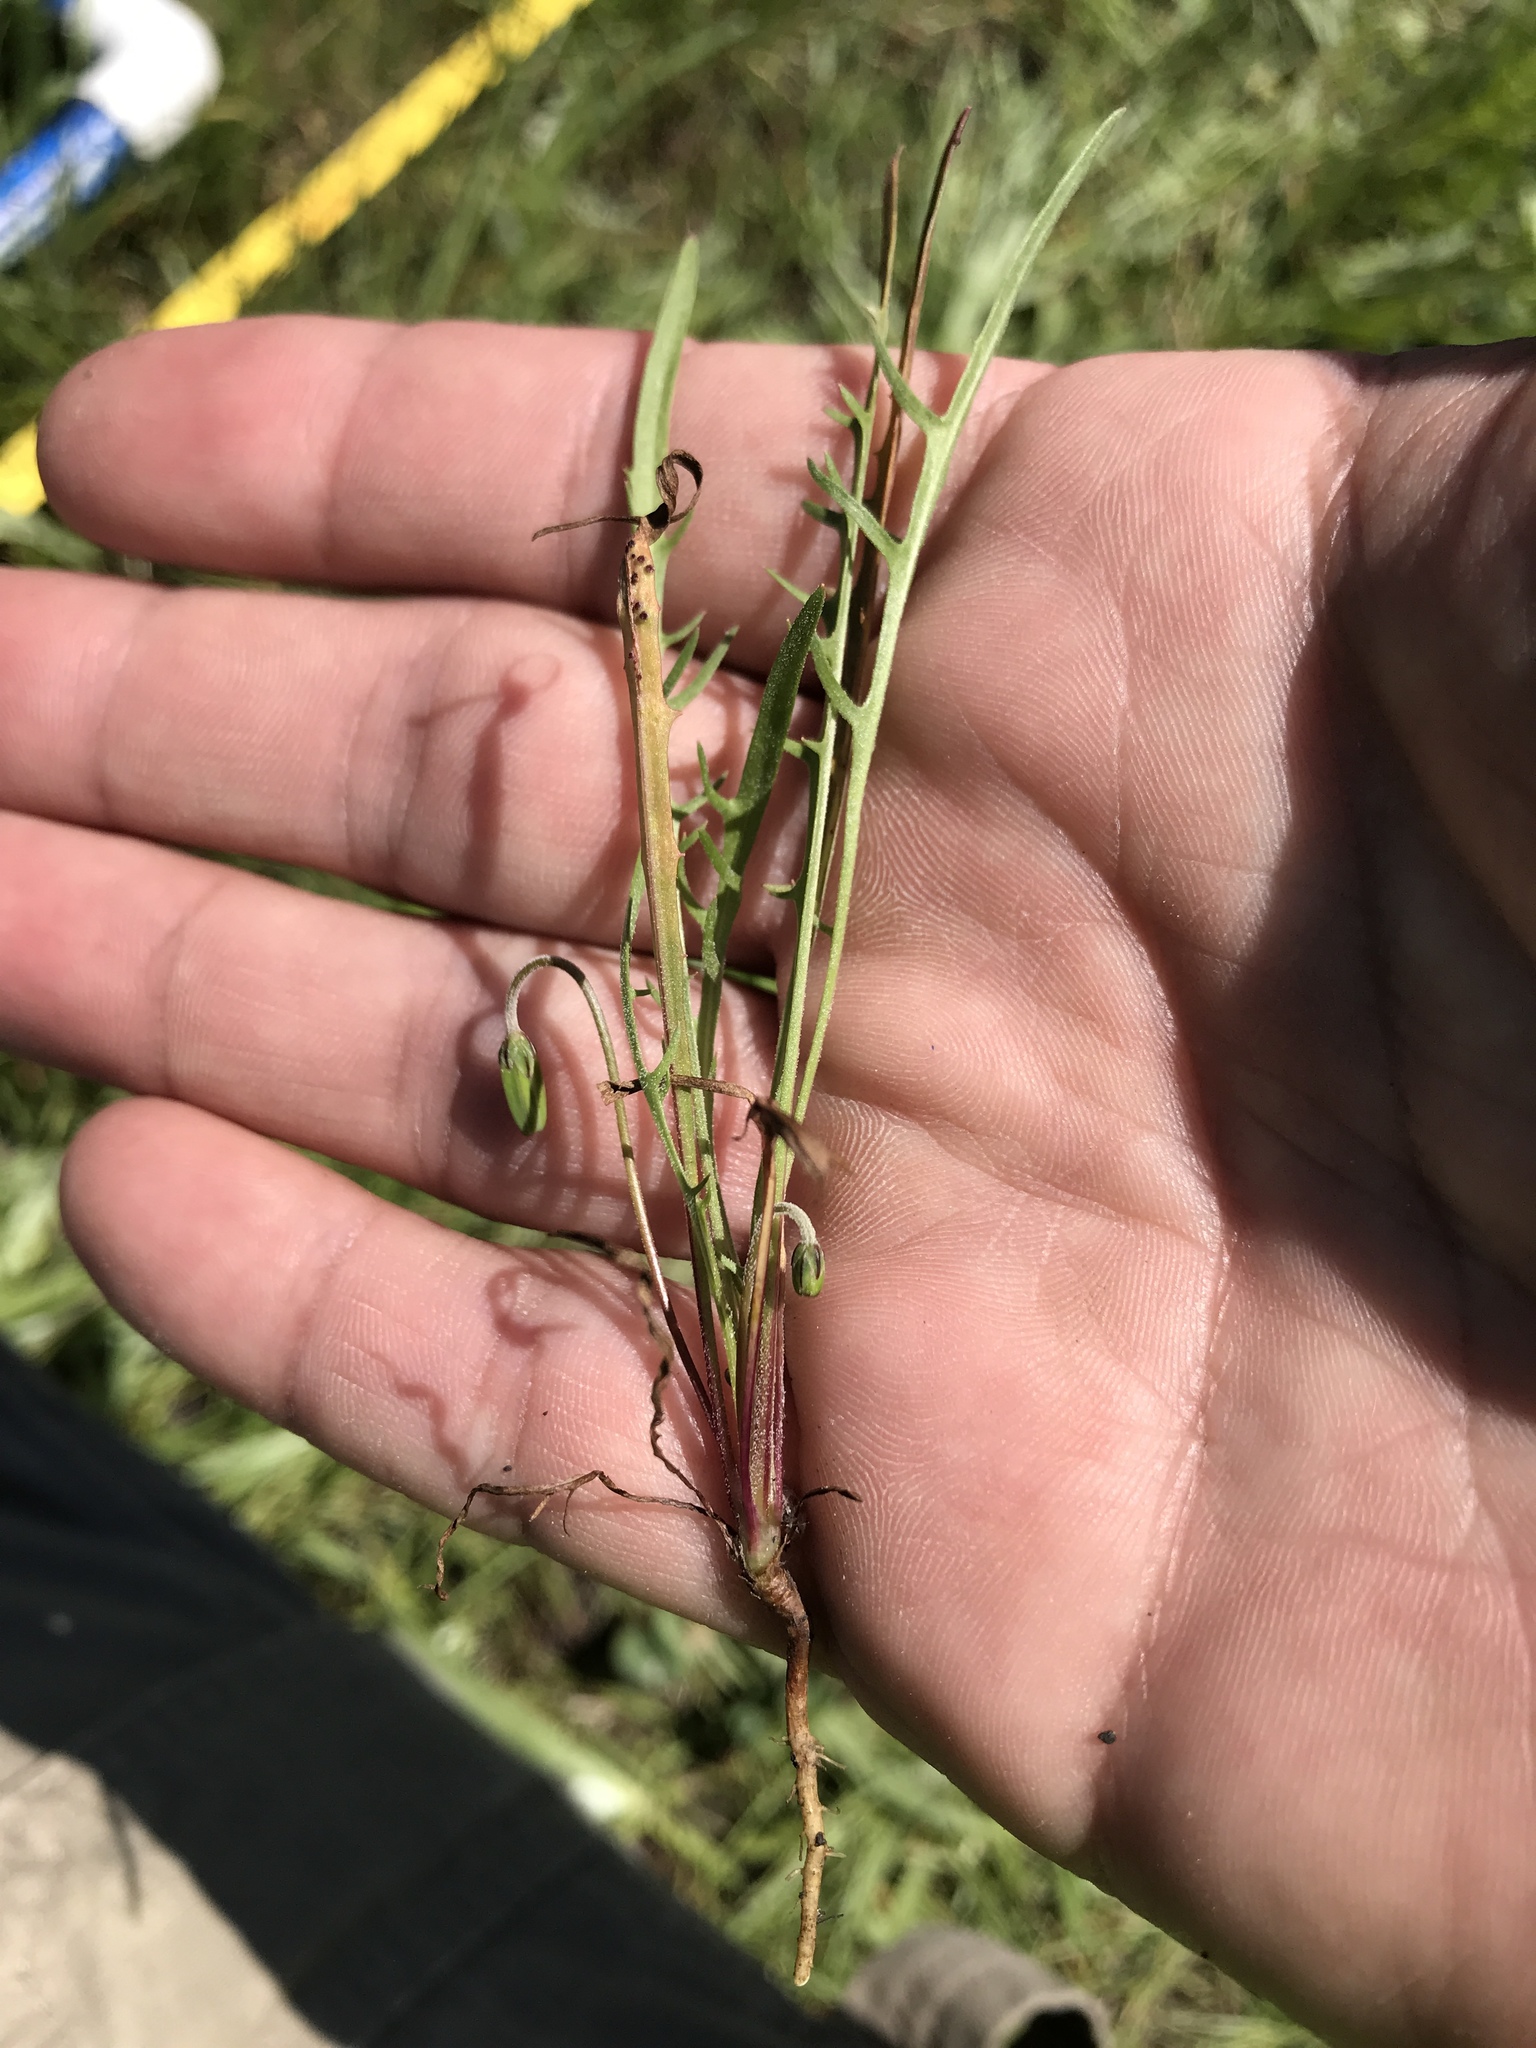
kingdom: Plantae
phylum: Tracheophyta
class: Magnoliopsida
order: Asterales
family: Asteraceae
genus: Microseris
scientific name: Microseris douglasii
